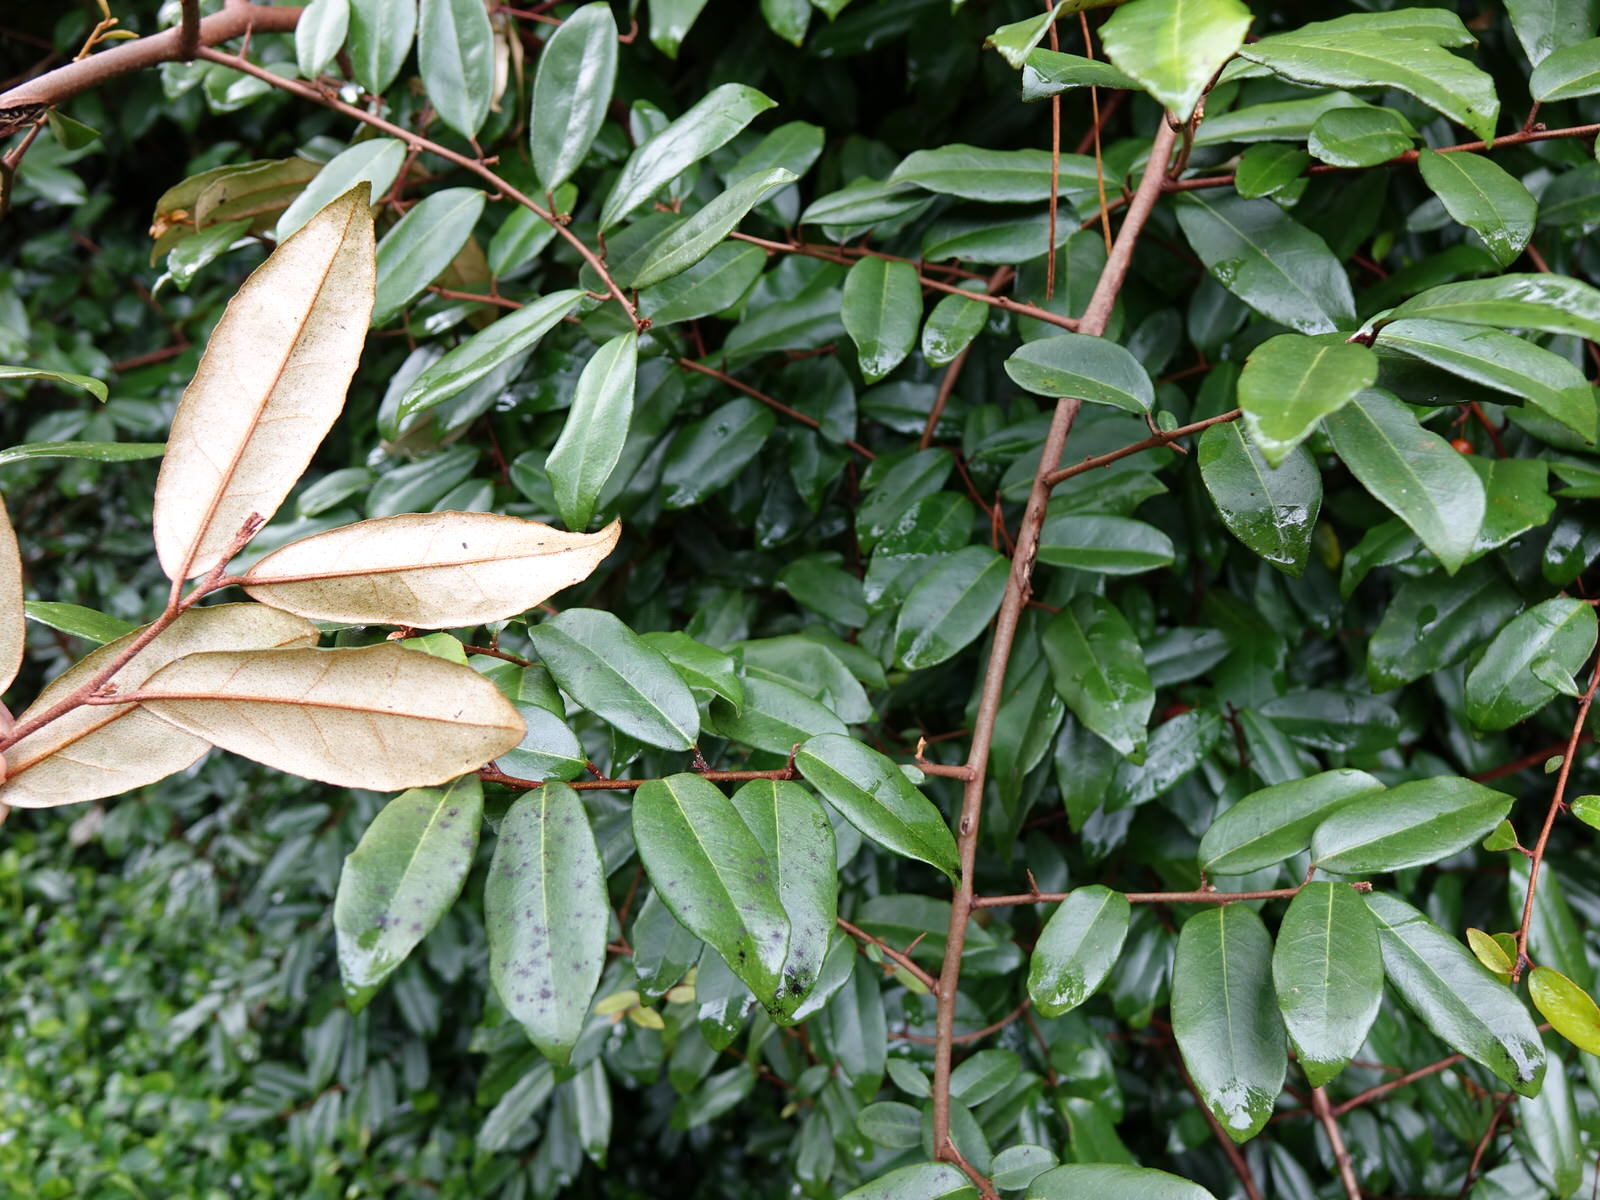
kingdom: Plantae
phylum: Tracheophyta
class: Magnoliopsida
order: Rosales
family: Elaeagnaceae
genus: Elaeagnus
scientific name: Elaeagnus reflexa
